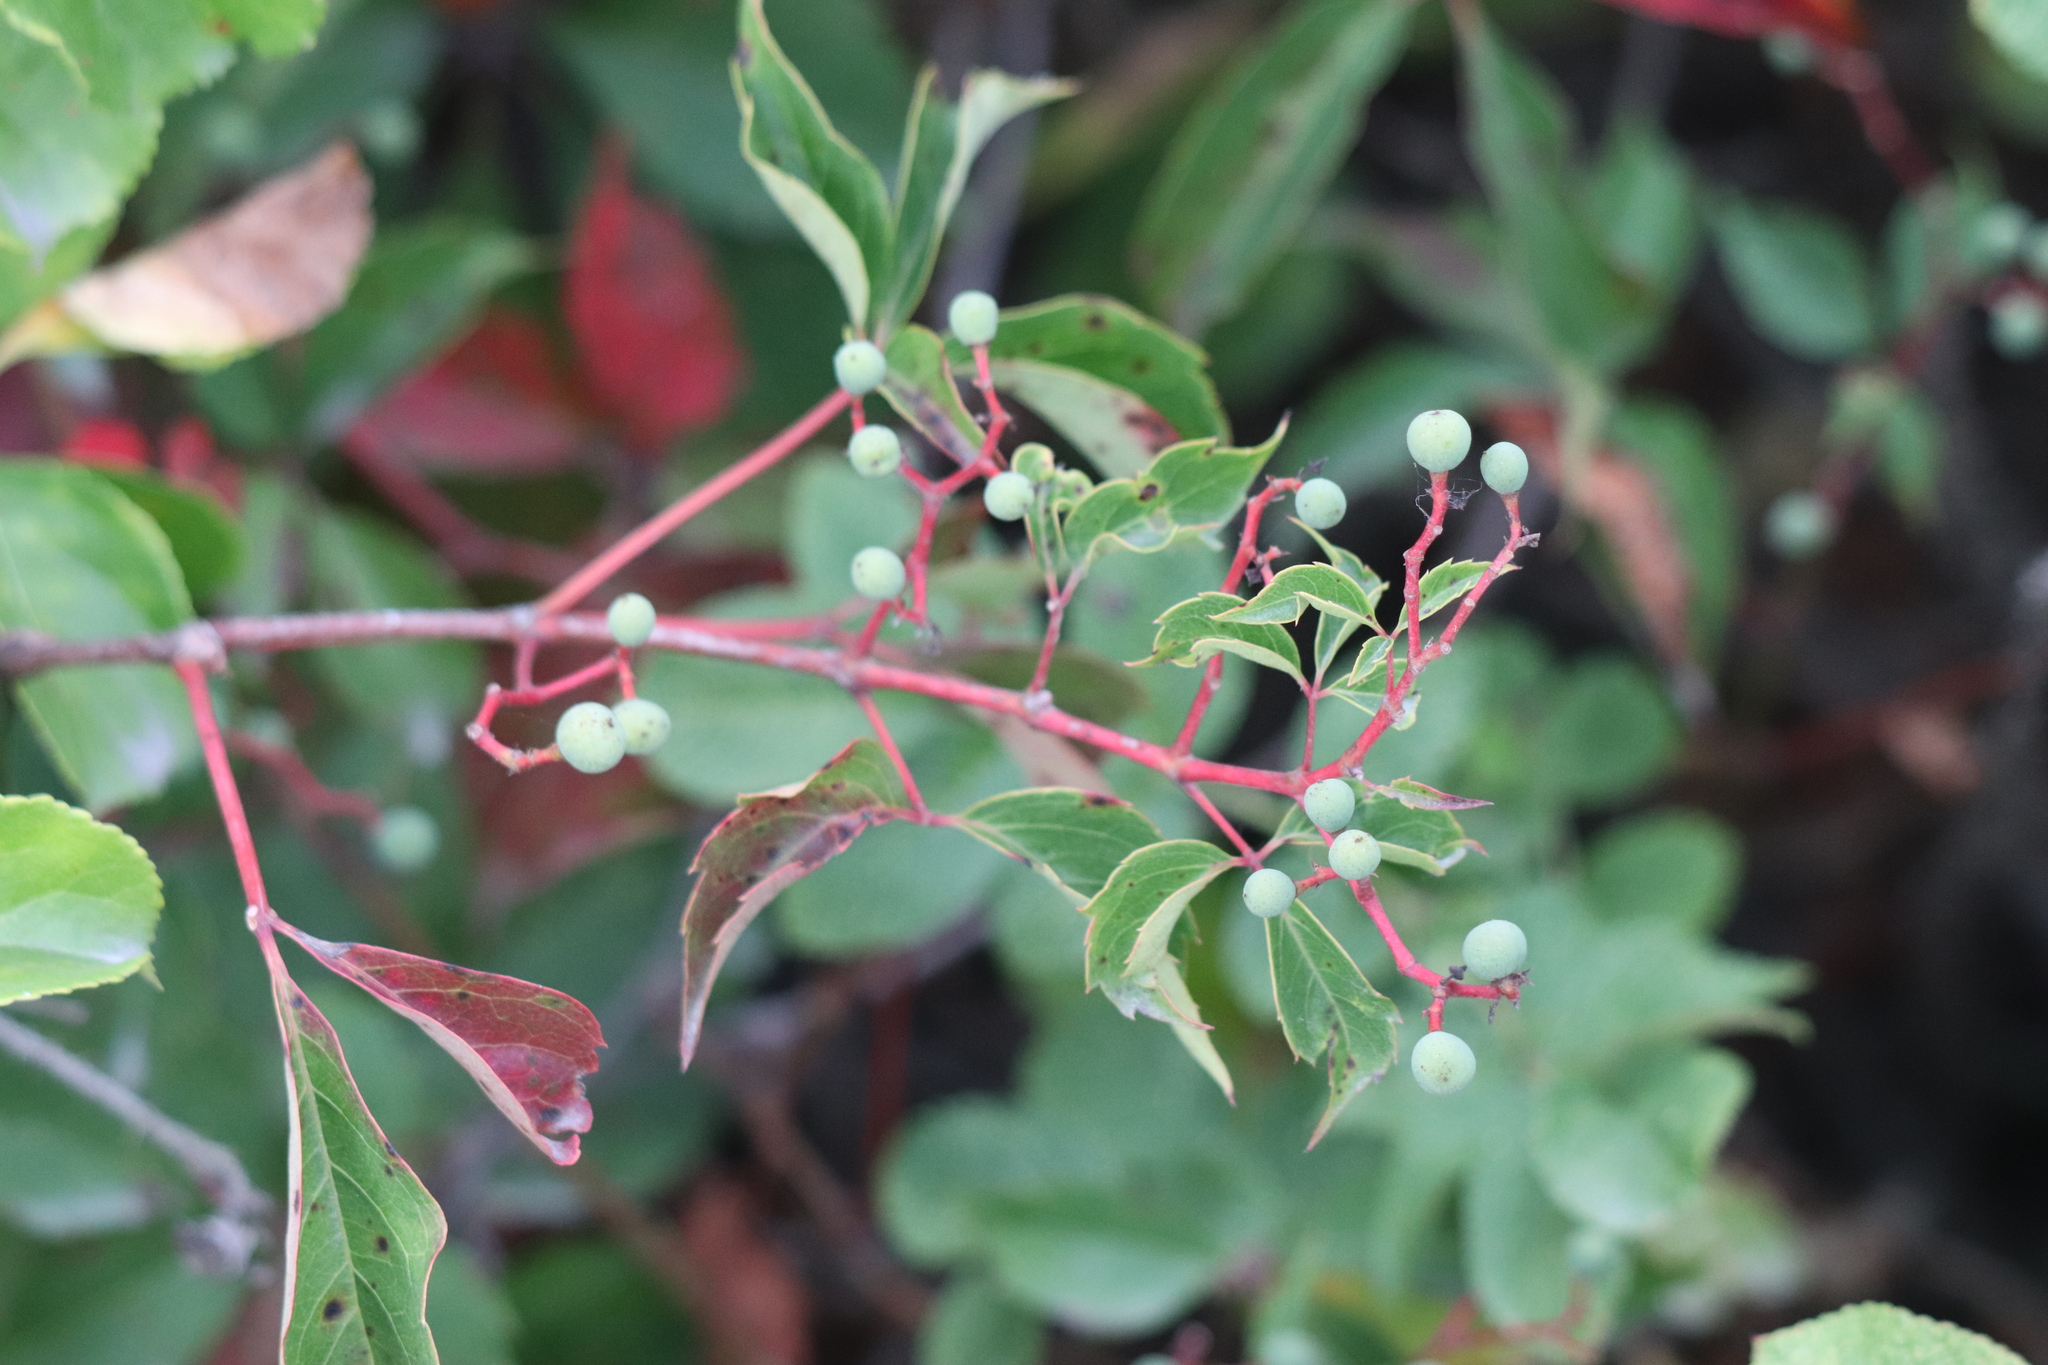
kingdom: Plantae
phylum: Tracheophyta
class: Magnoliopsida
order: Vitales
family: Vitaceae
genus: Parthenocissus
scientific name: Parthenocissus quinquefolia
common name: Virginia-creeper
